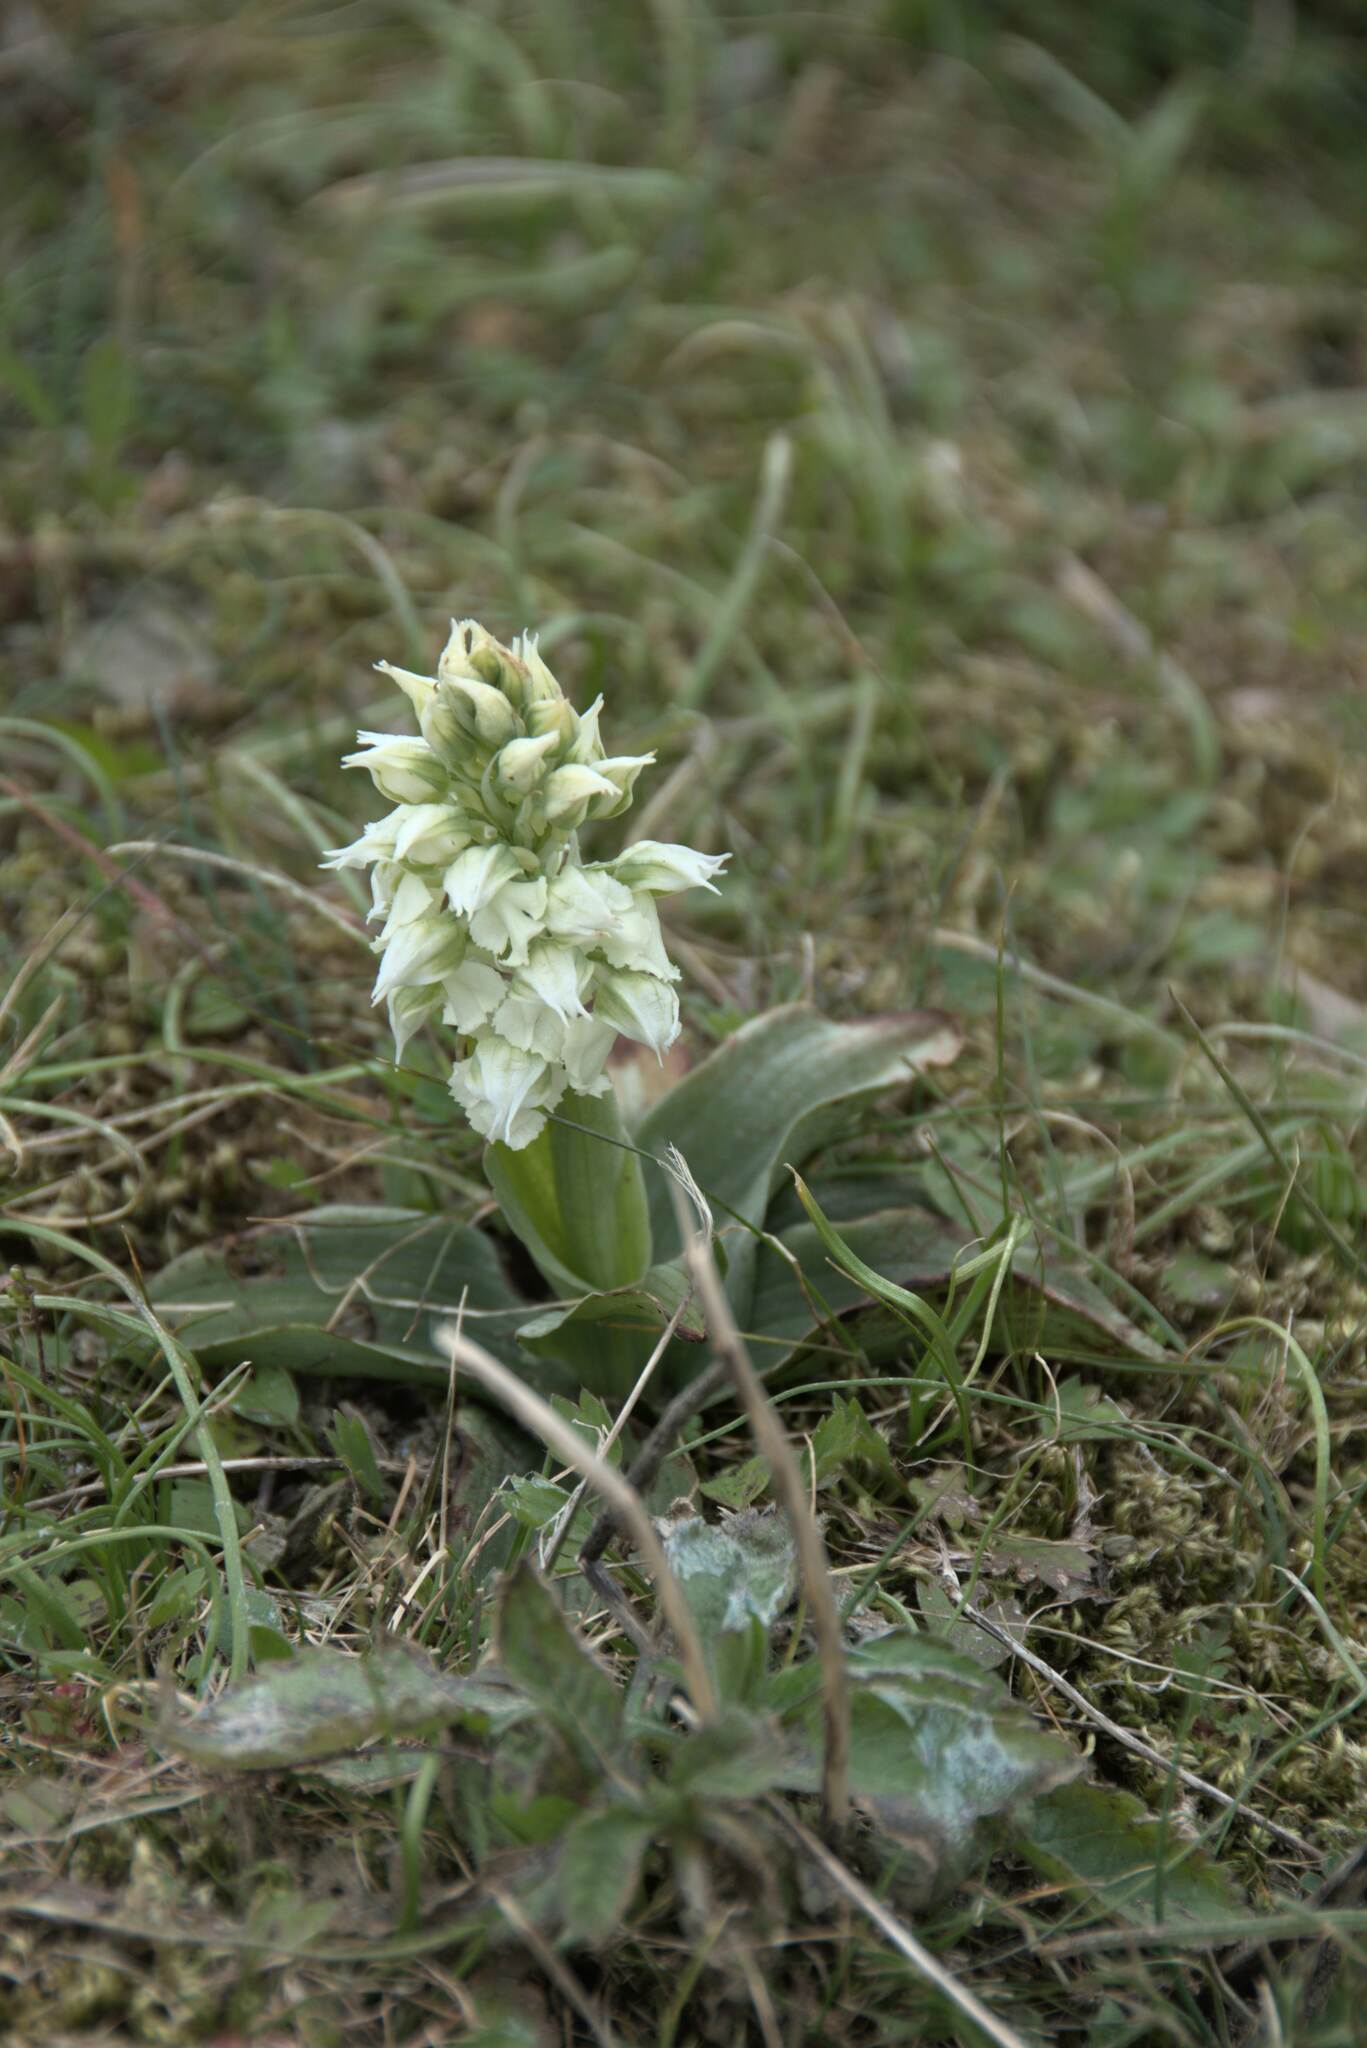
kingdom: Plantae
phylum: Tracheophyta
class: Liliopsida
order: Asparagales
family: Orchidaceae
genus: Neotinea
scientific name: Neotinea lactea
